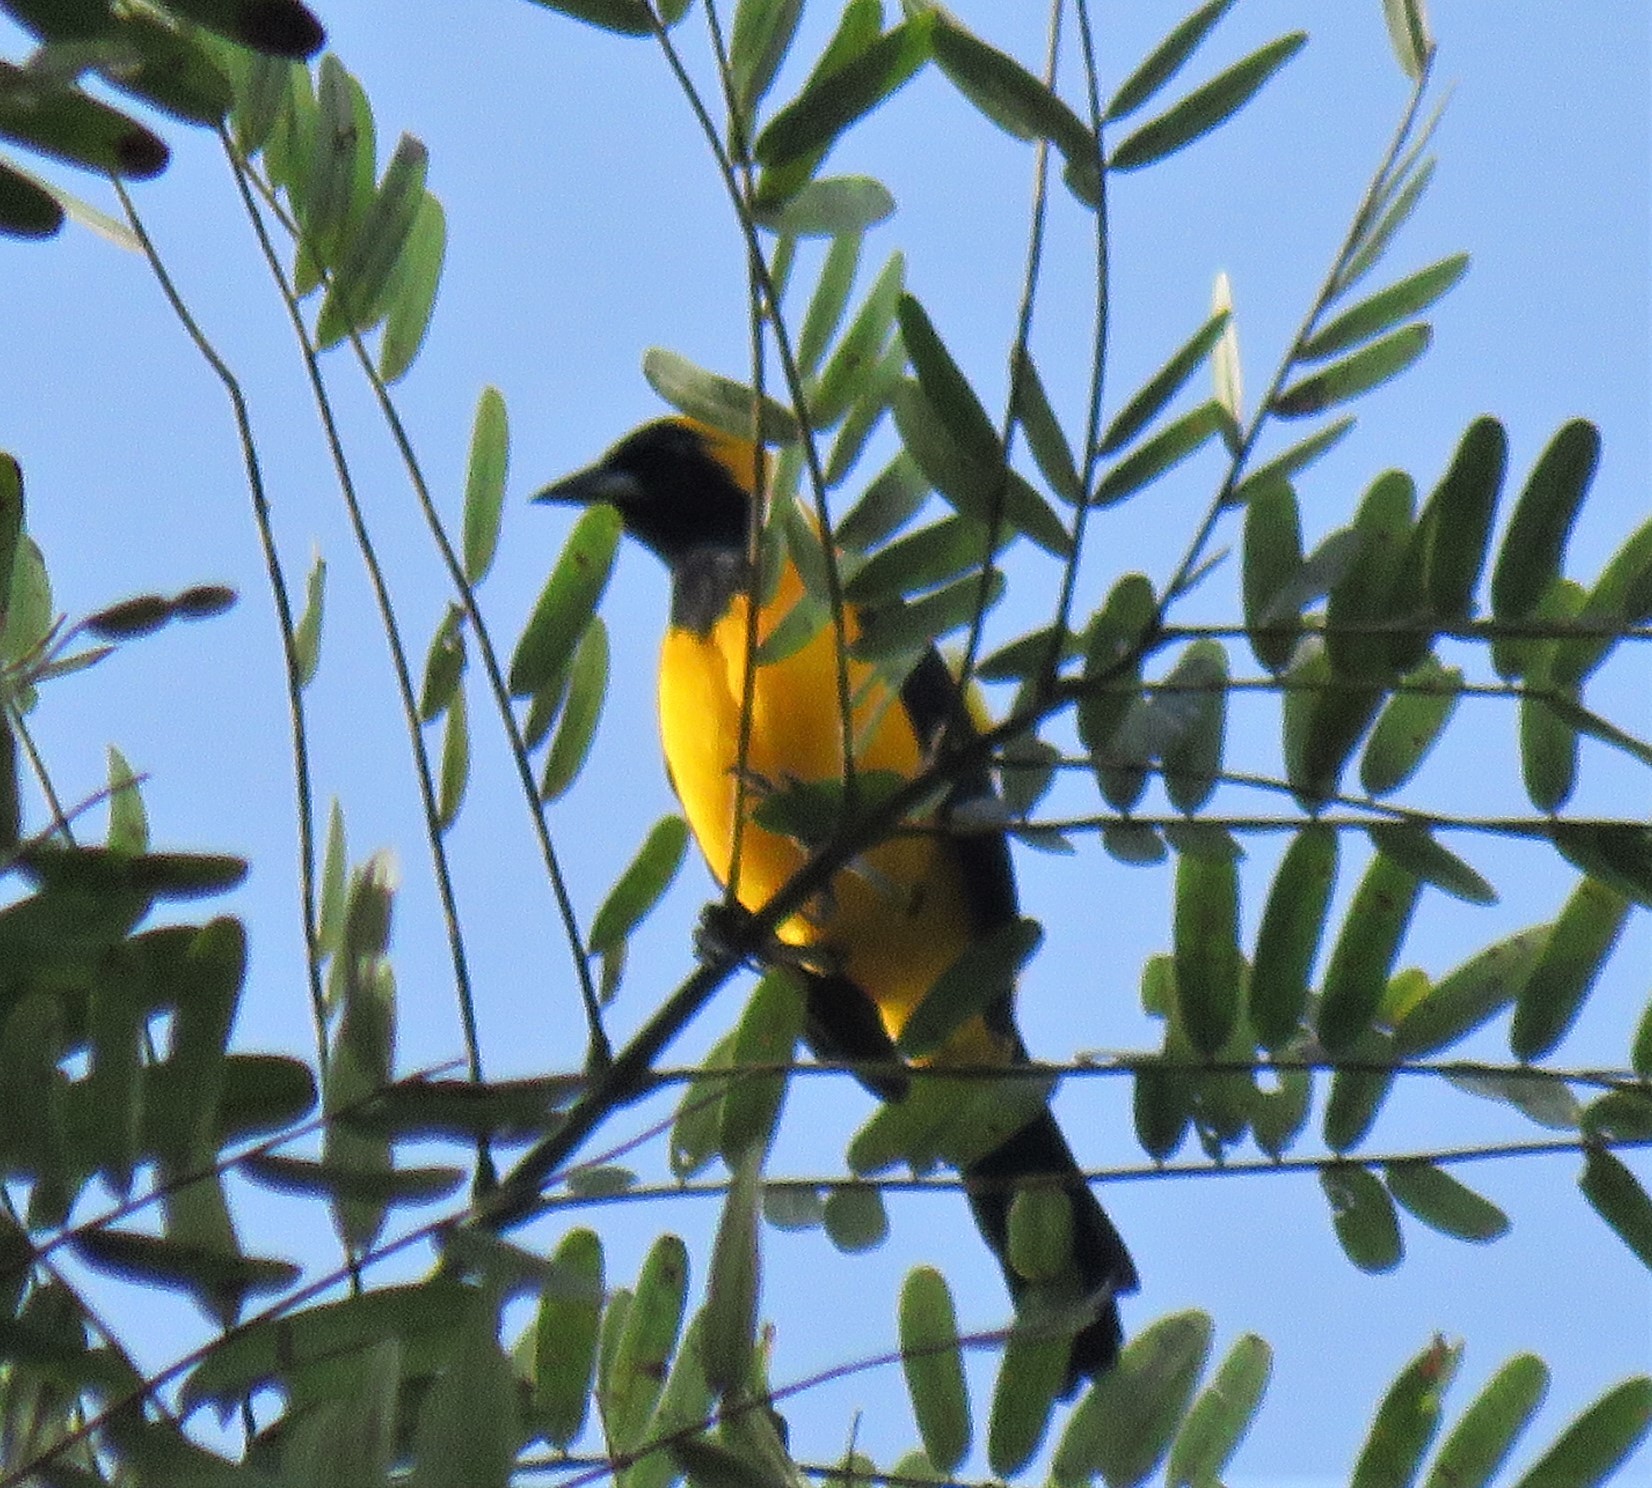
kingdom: Animalia
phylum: Chordata
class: Aves
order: Passeriformes
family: Icteridae
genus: Icterus
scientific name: Icterus chrysater
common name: Yellow-backed oriole
